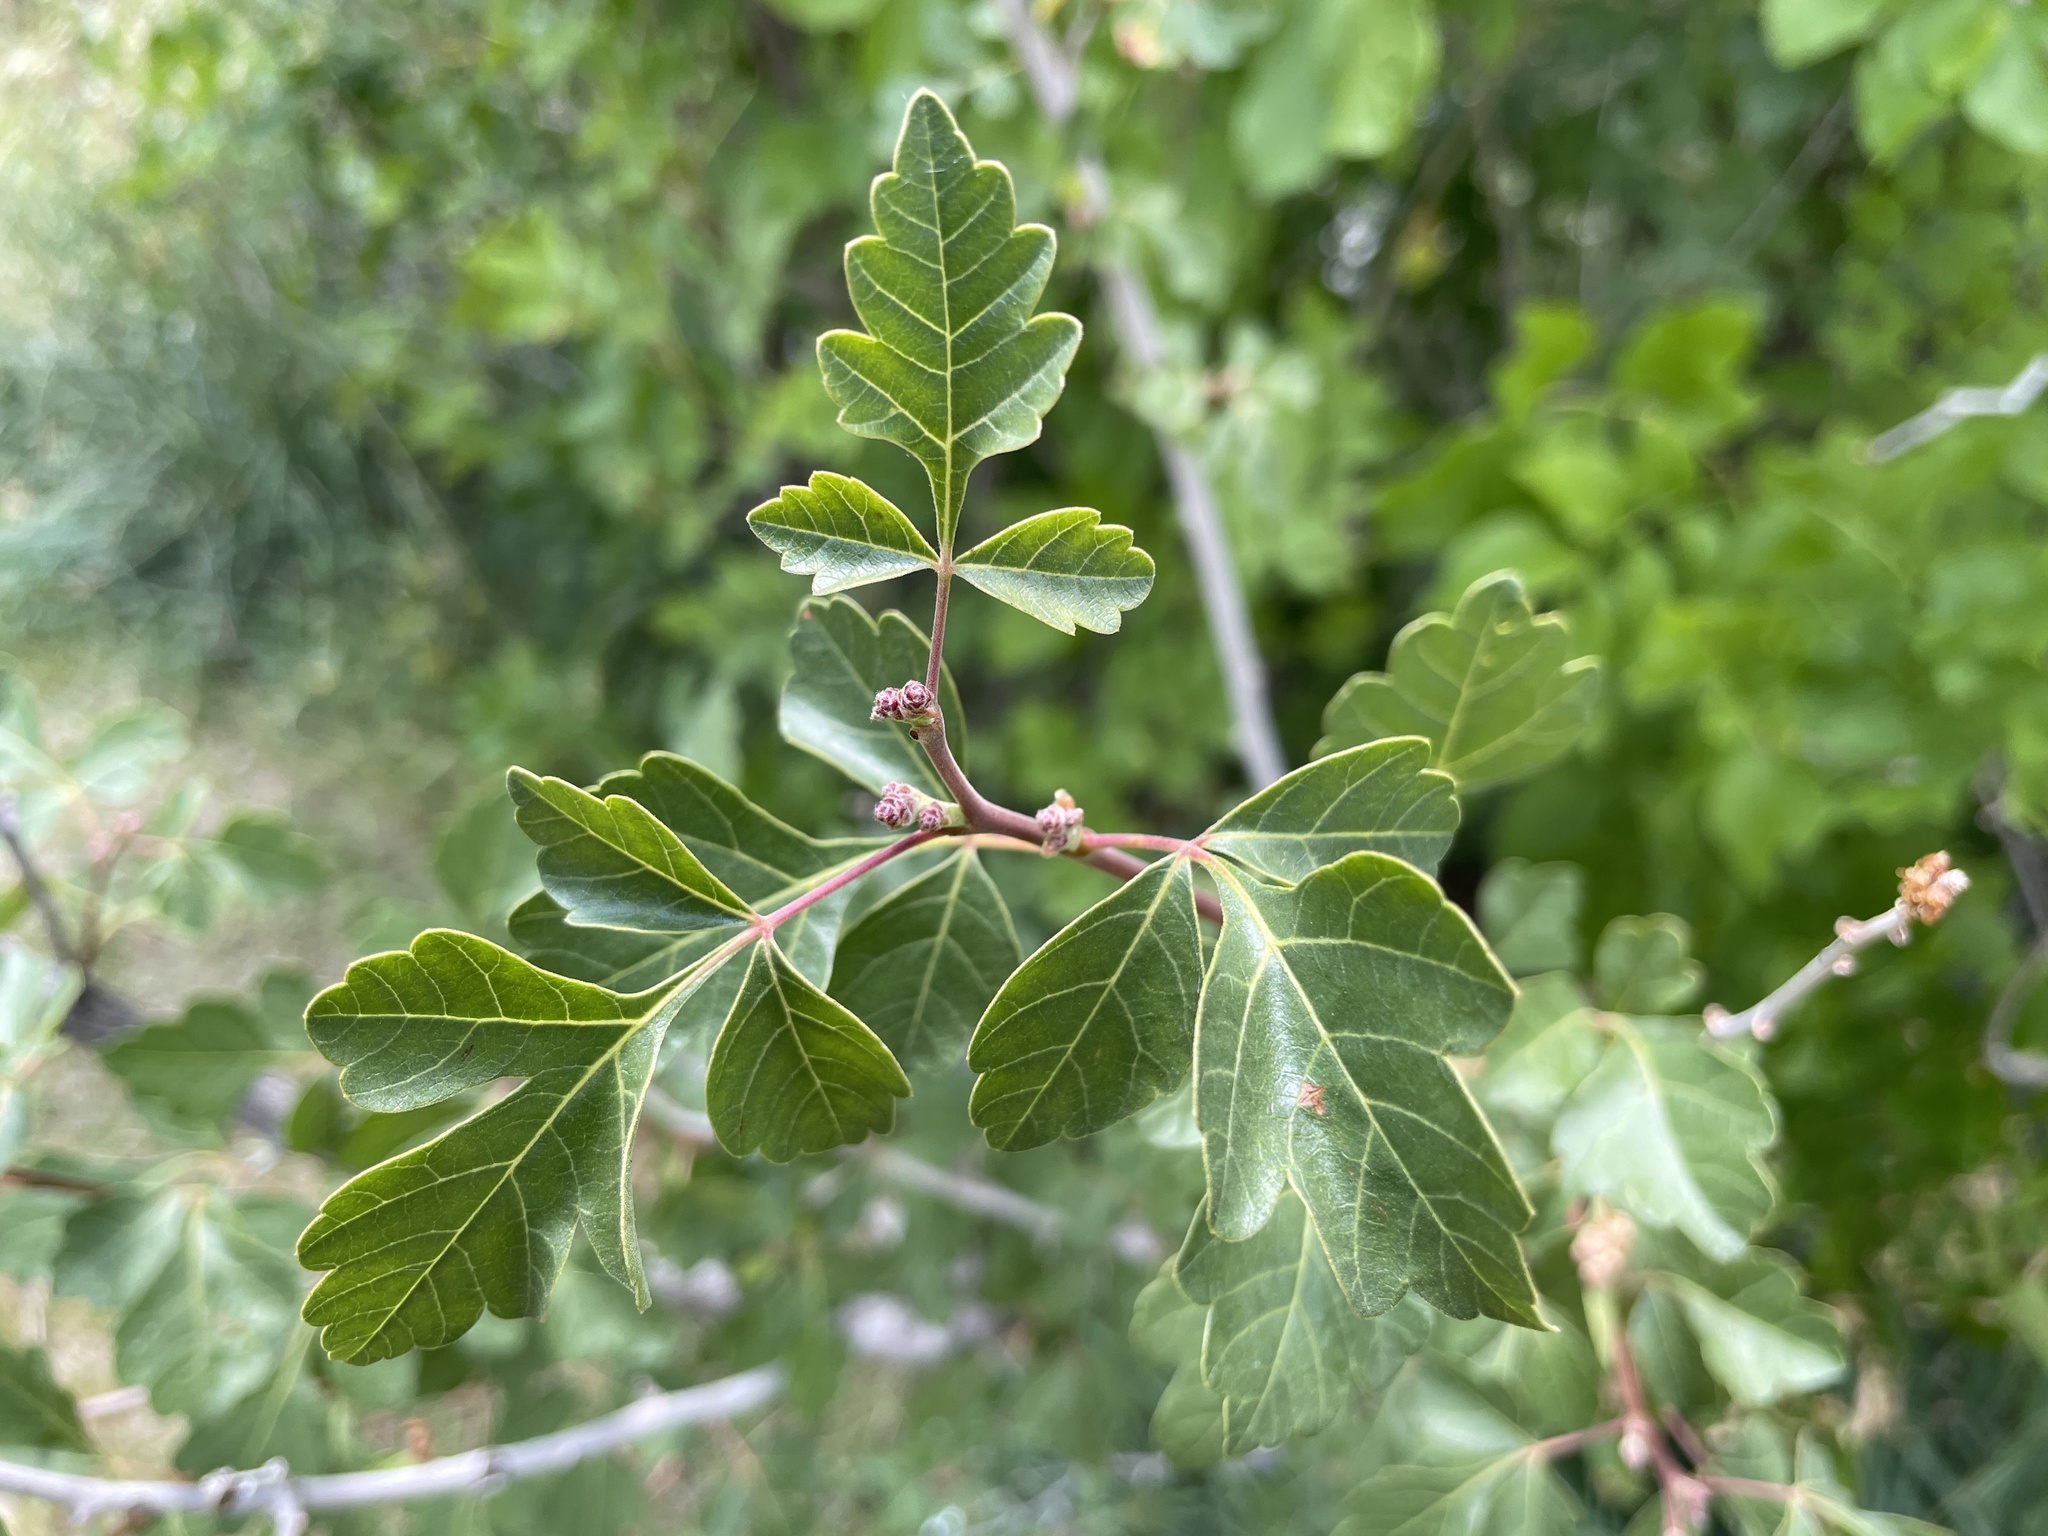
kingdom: Plantae
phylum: Tracheophyta
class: Magnoliopsida
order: Sapindales
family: Anacardiaceae
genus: Rhus
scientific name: Rhus trilobata
